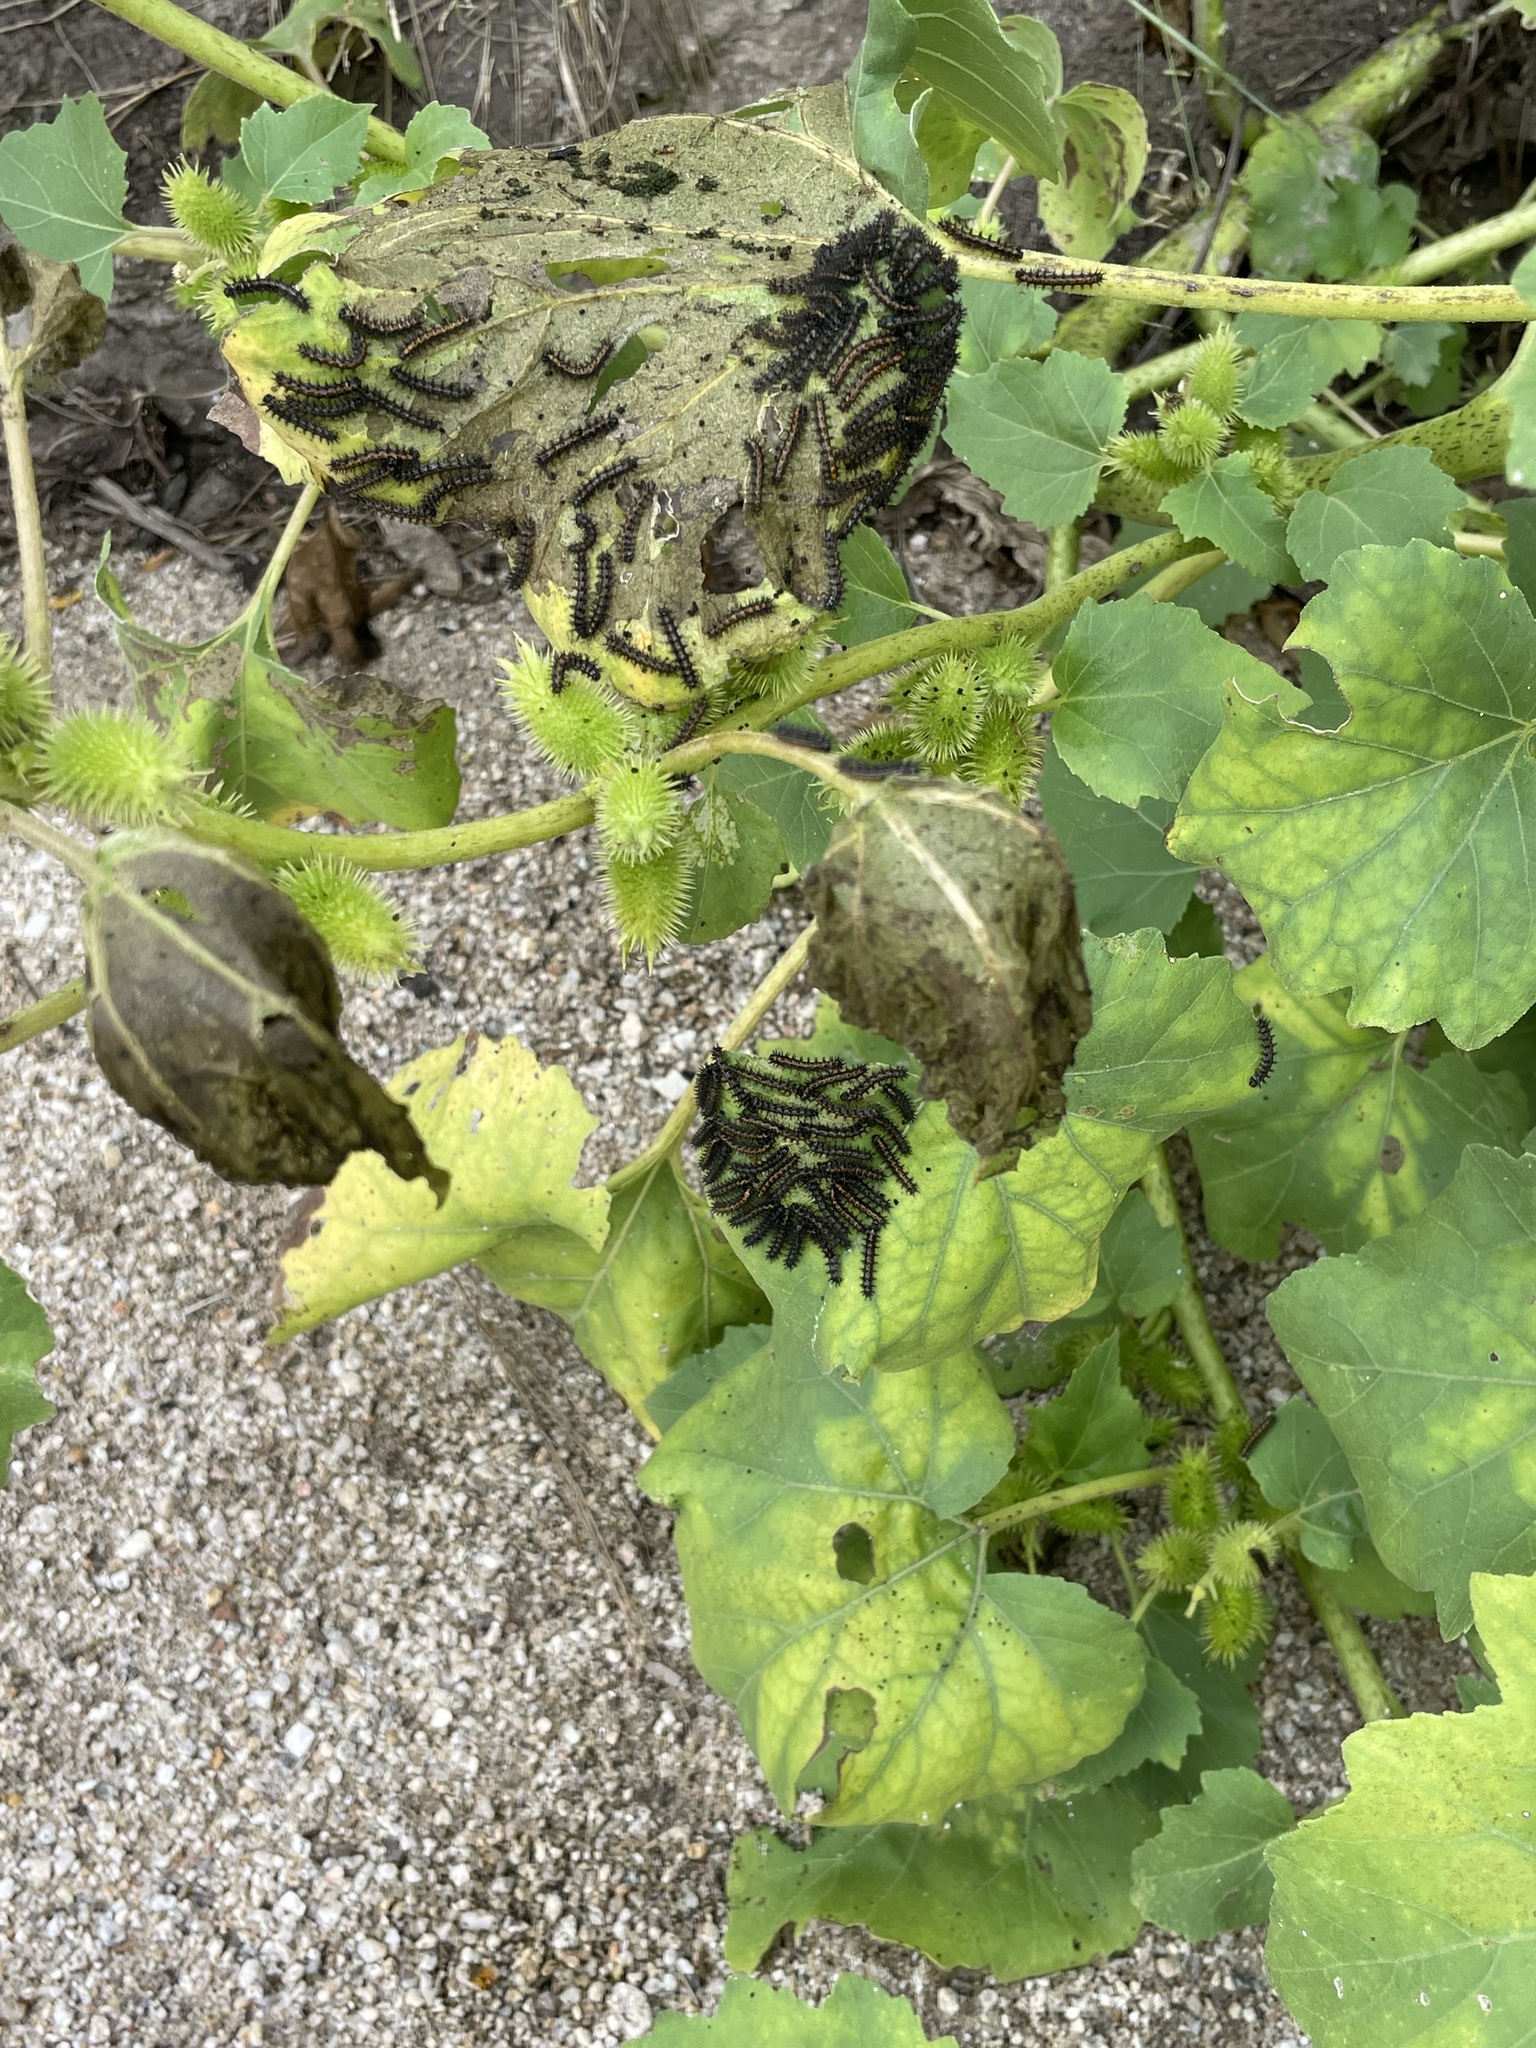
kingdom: Animalia
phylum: Arthropoda
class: Insecta
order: Lepidoptera
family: Nymphalidae
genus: Chlosyne
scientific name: Chlosyne lacinia
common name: Bordered patch
